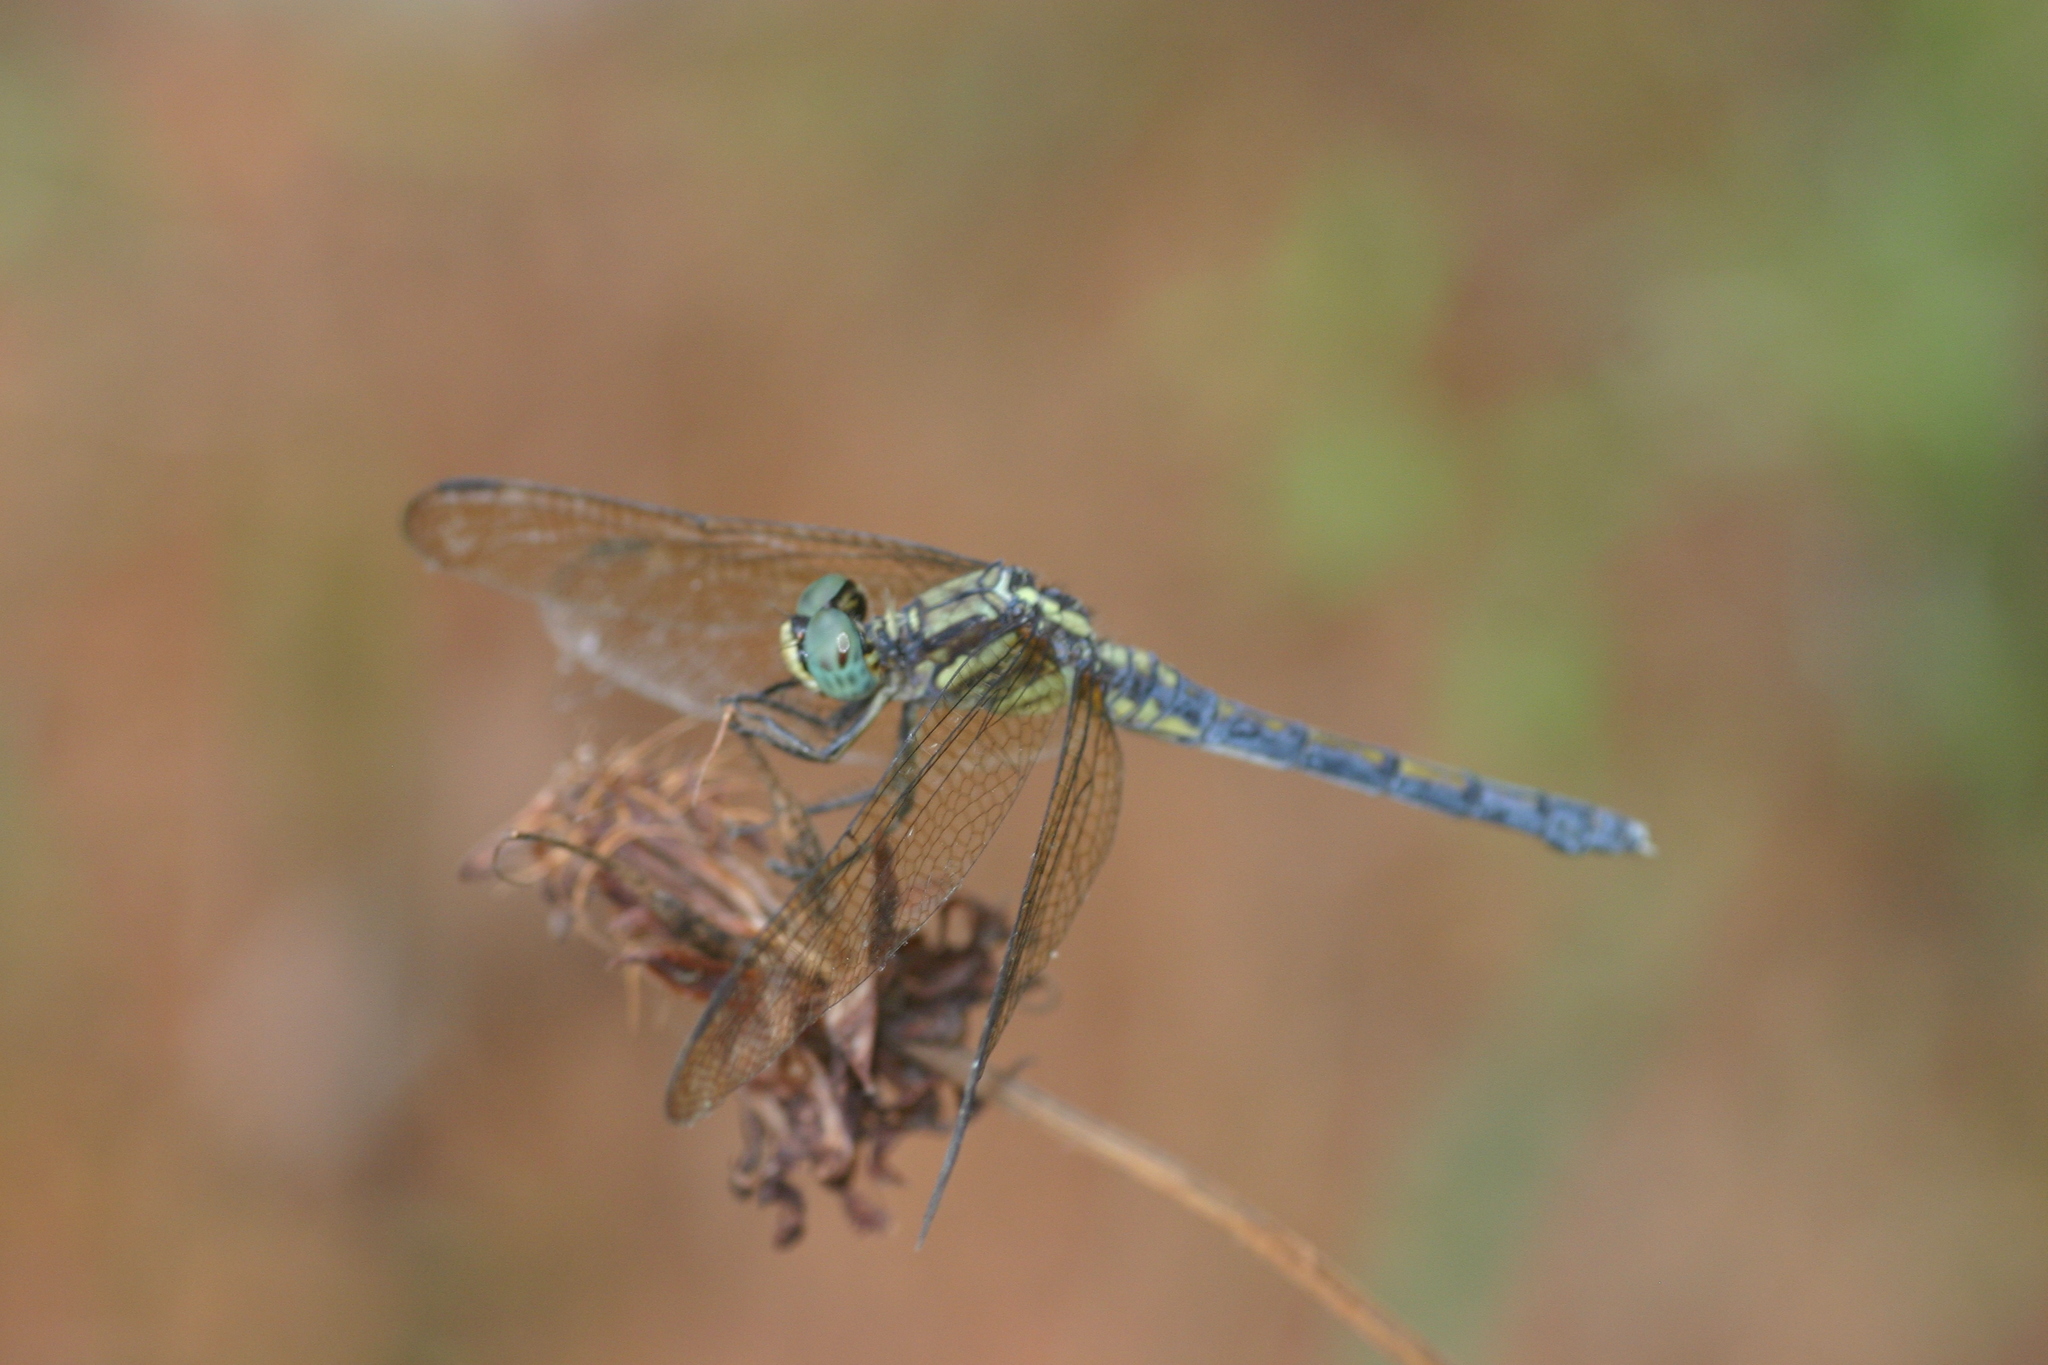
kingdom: Animalia
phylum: Arthropoda
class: Insecta
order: Odonata
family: Libellulidae
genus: Orthetrum
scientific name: Orthetrum luzonicum
